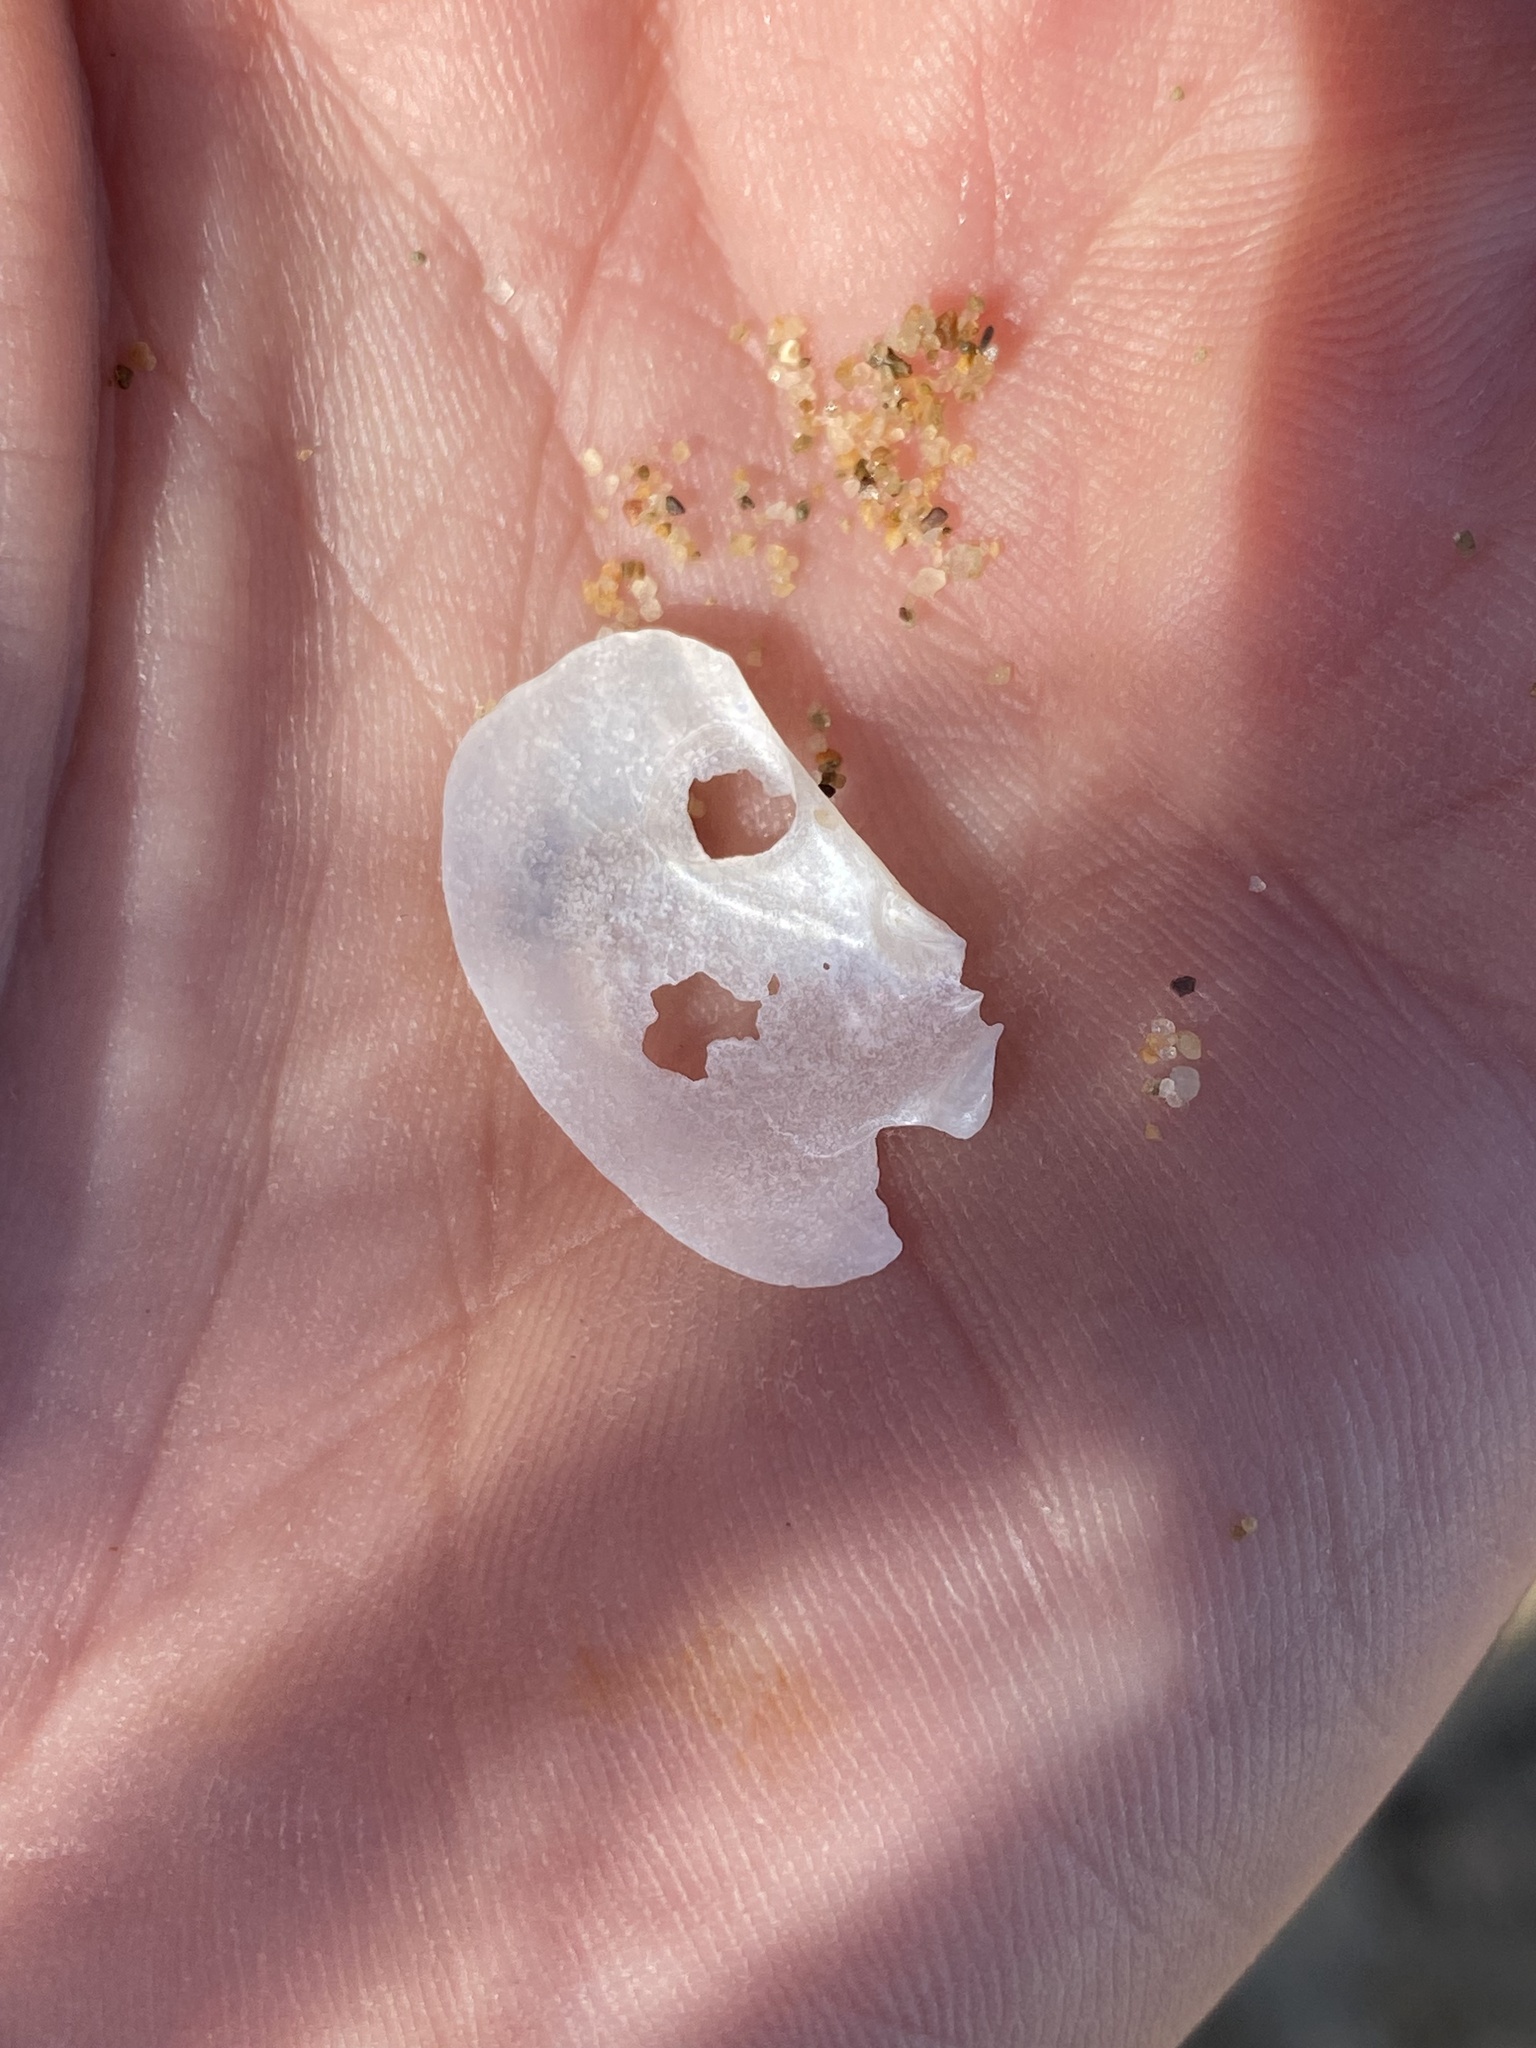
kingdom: Animalia
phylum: Mollusca
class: Bivalvia
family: Pandoridae
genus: Pandora
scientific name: Pandora gouldiana
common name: Rounded pandora
